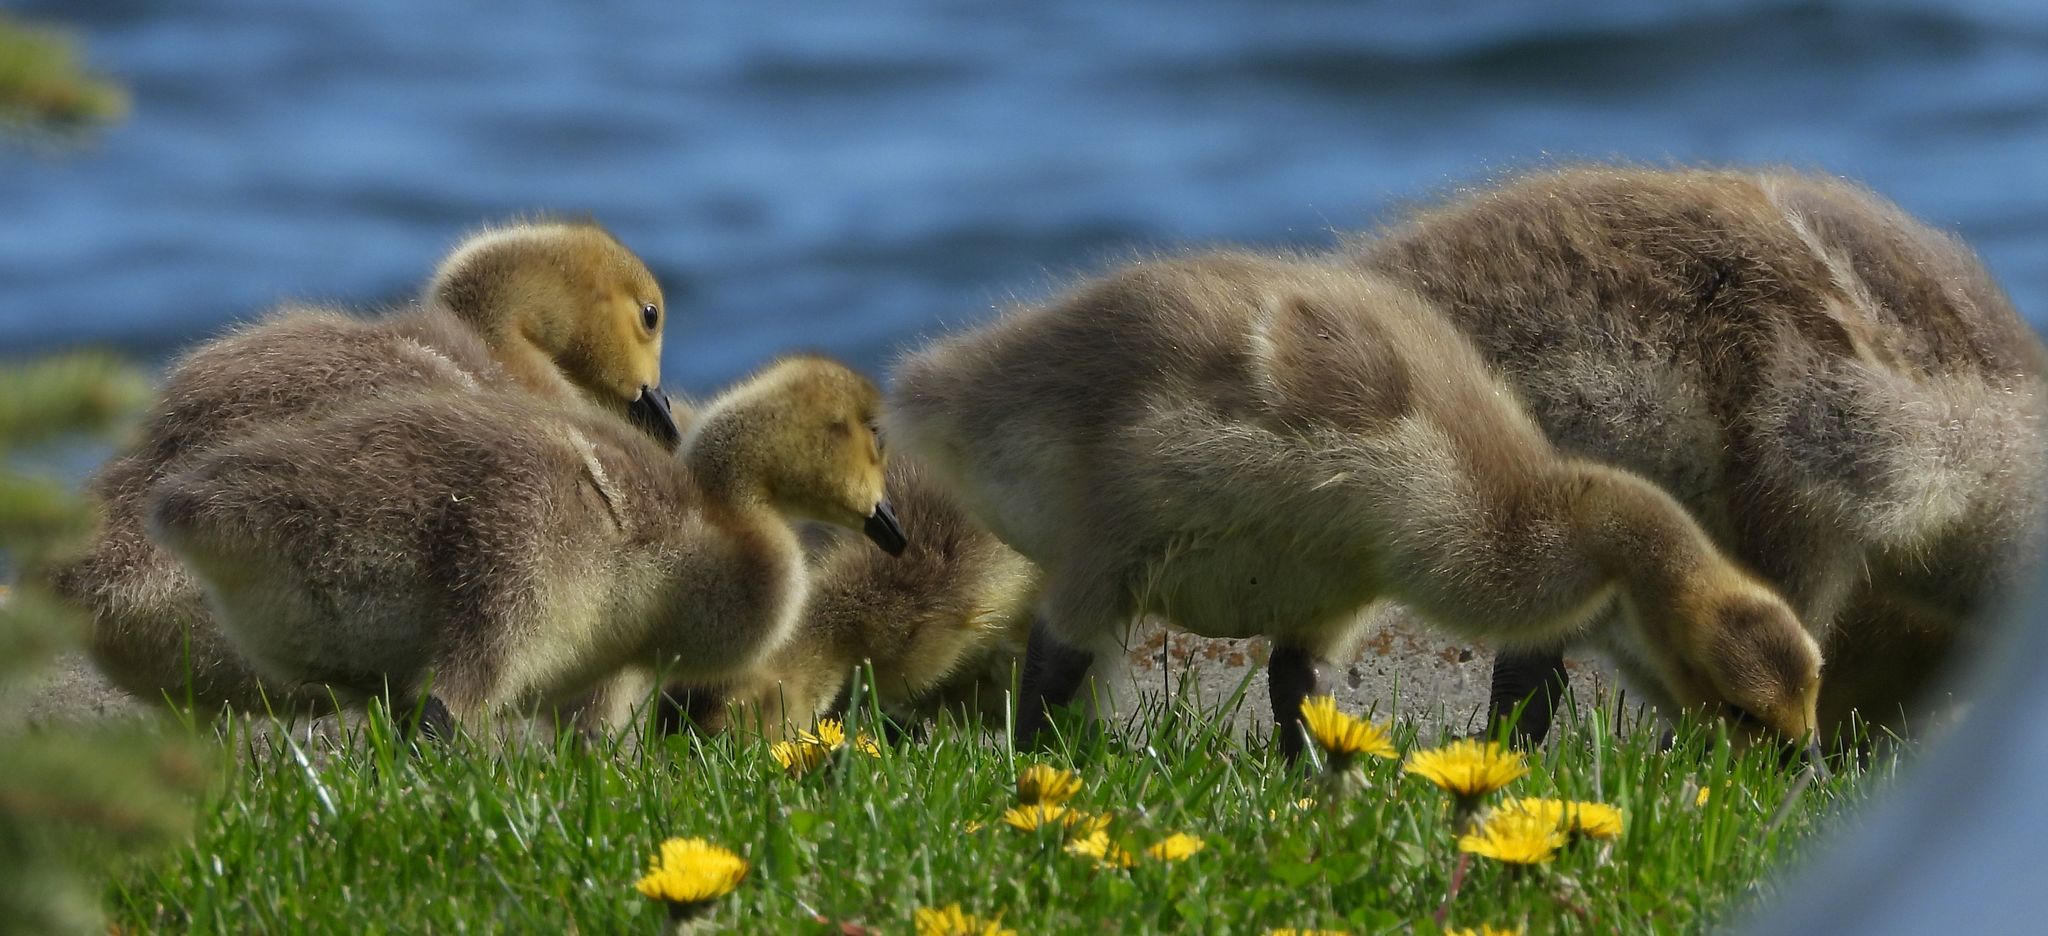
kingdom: Animalia
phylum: Chordata
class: Aves
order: Anseriformes
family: Anatidae
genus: Branta
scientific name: Branta canadensis
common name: Canada goose
